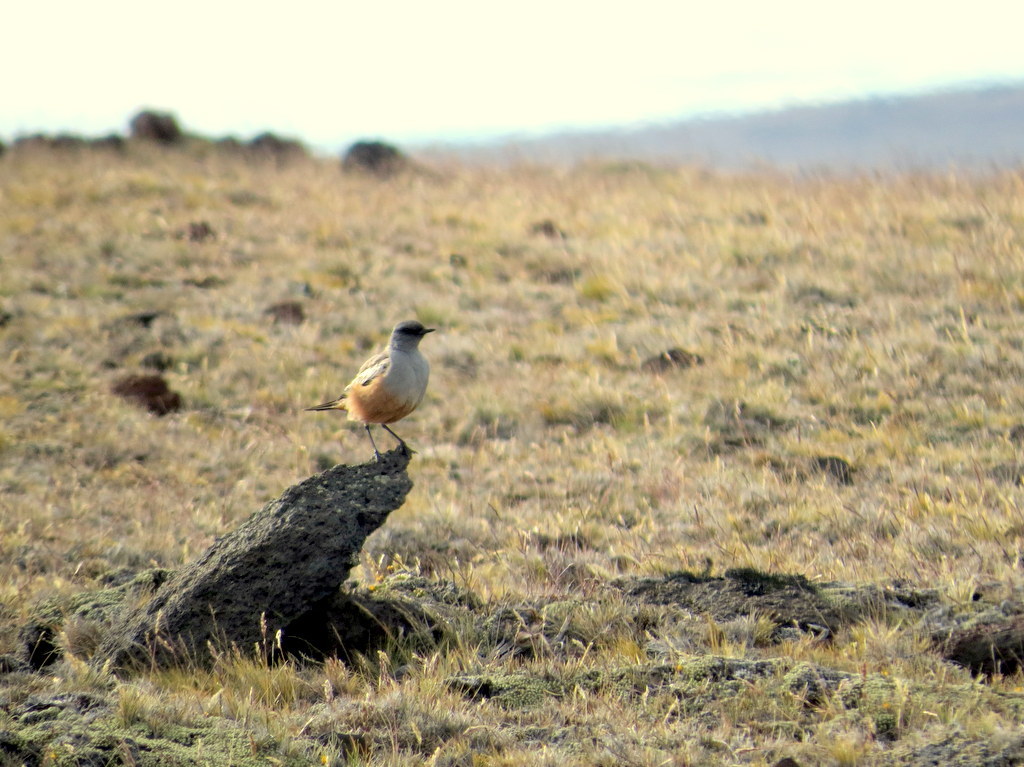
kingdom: Animalia
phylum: Chordata
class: Aves
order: Passeriformes
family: Tyrannidae
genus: Neoxolmis
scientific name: Neoxolmis rufiventris
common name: Chocolate-vented tyrant
